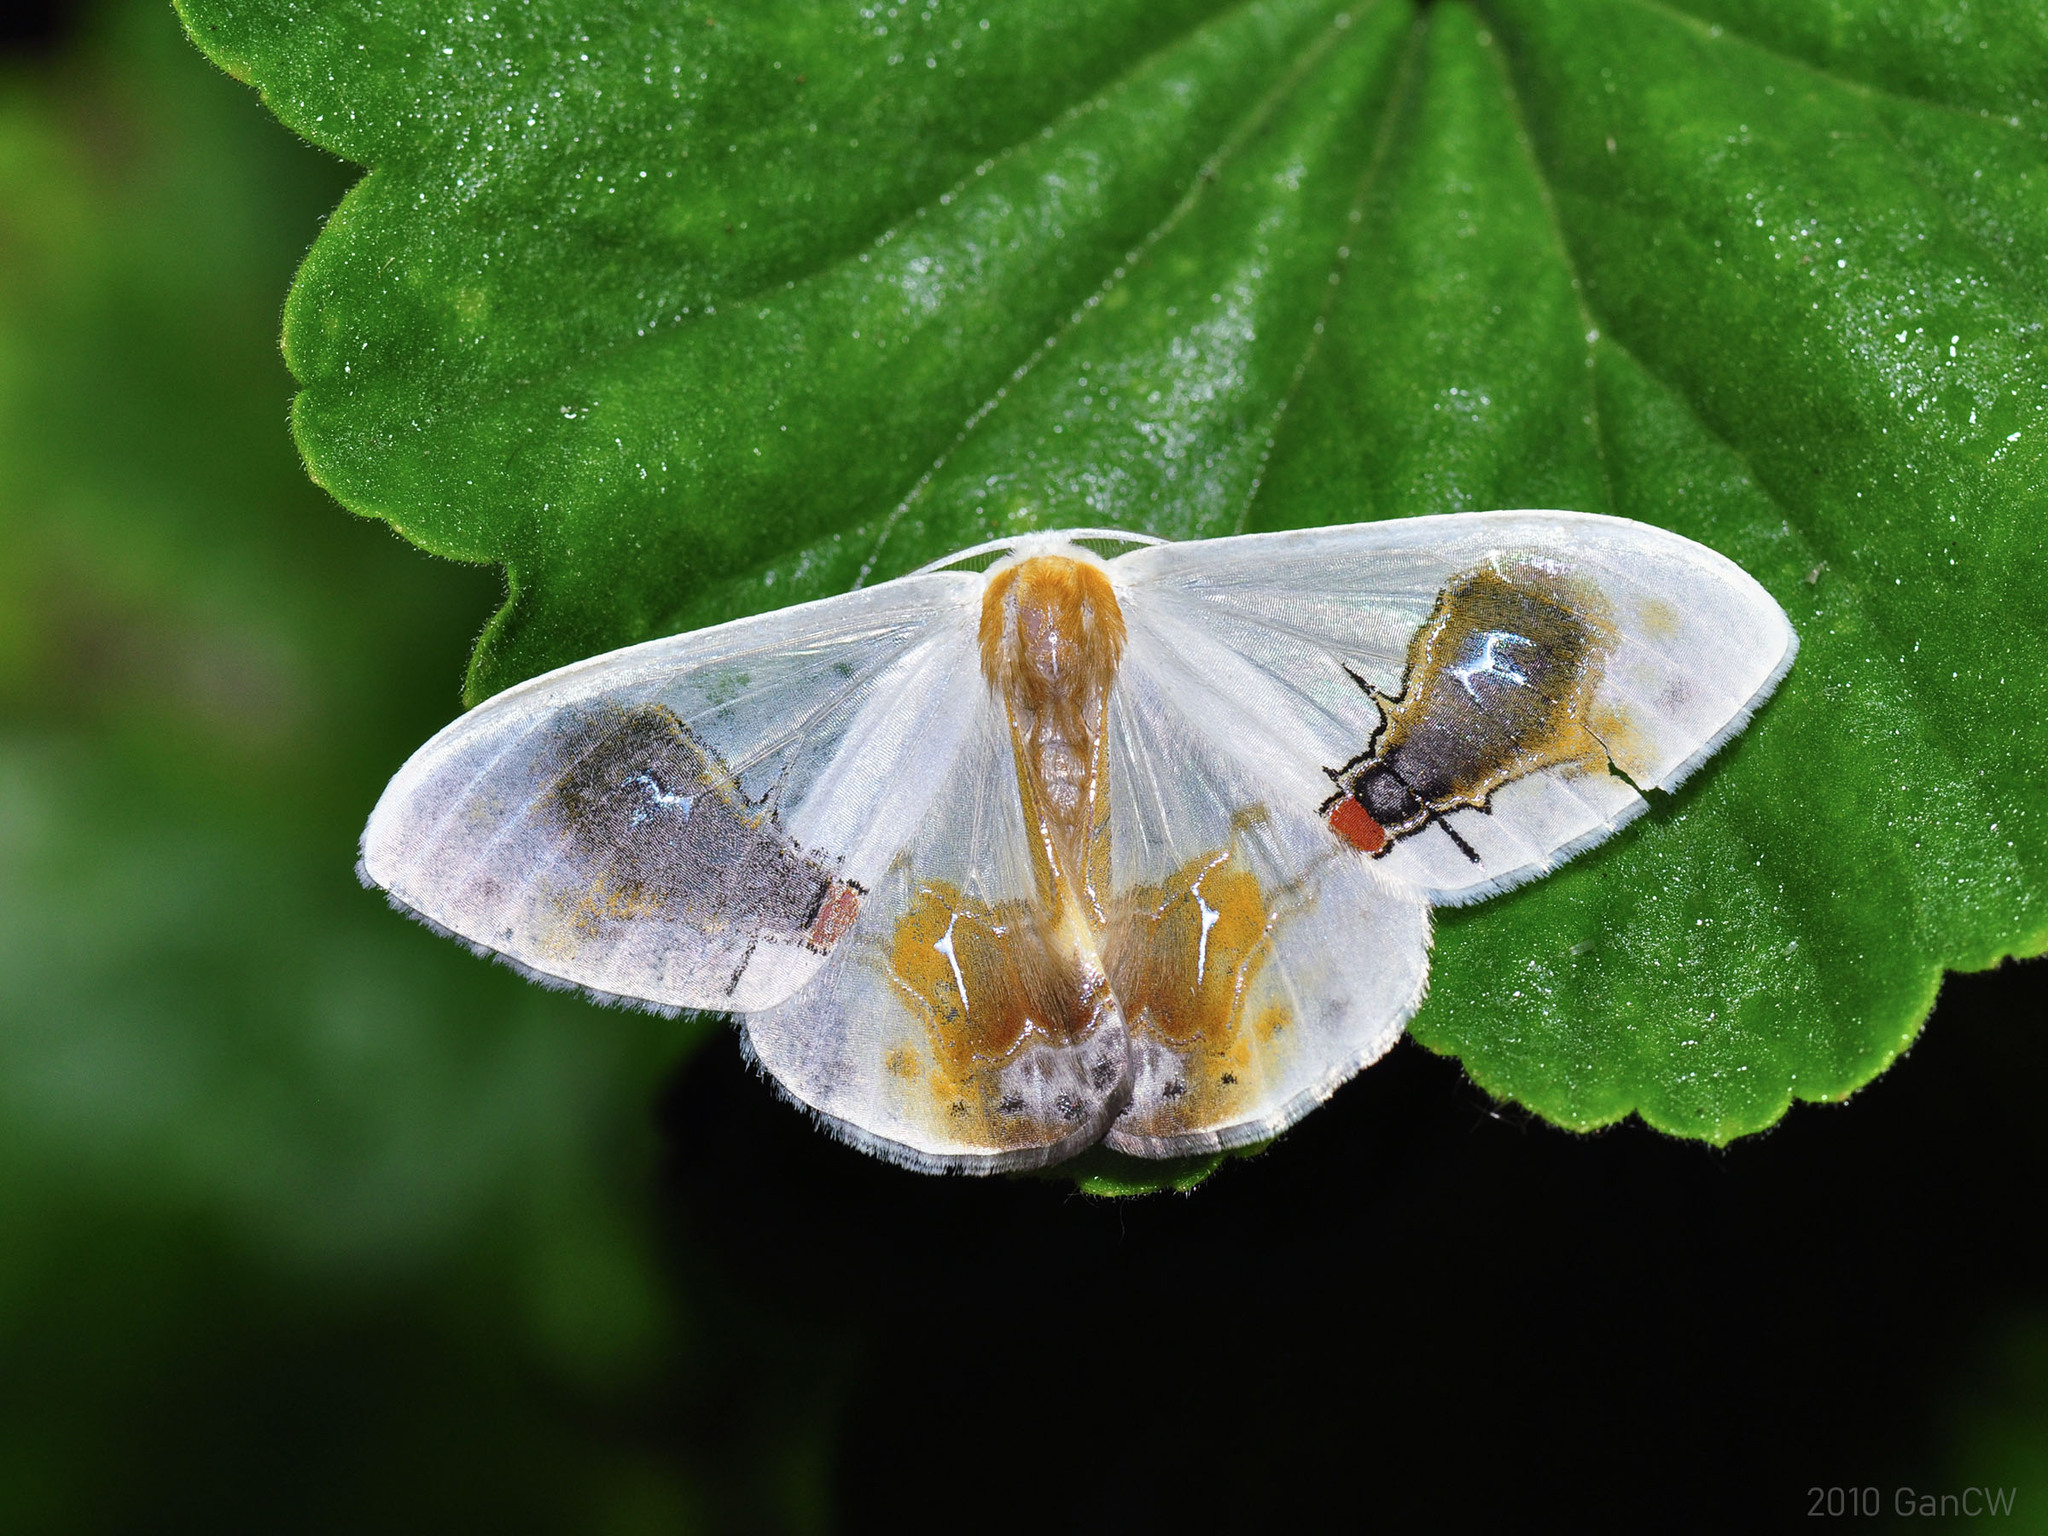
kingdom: Animalia
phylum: Arthropoda
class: Insecta
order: Lepidoptera
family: Drepanidae
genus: Macrocilix
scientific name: Macrocilix maia
